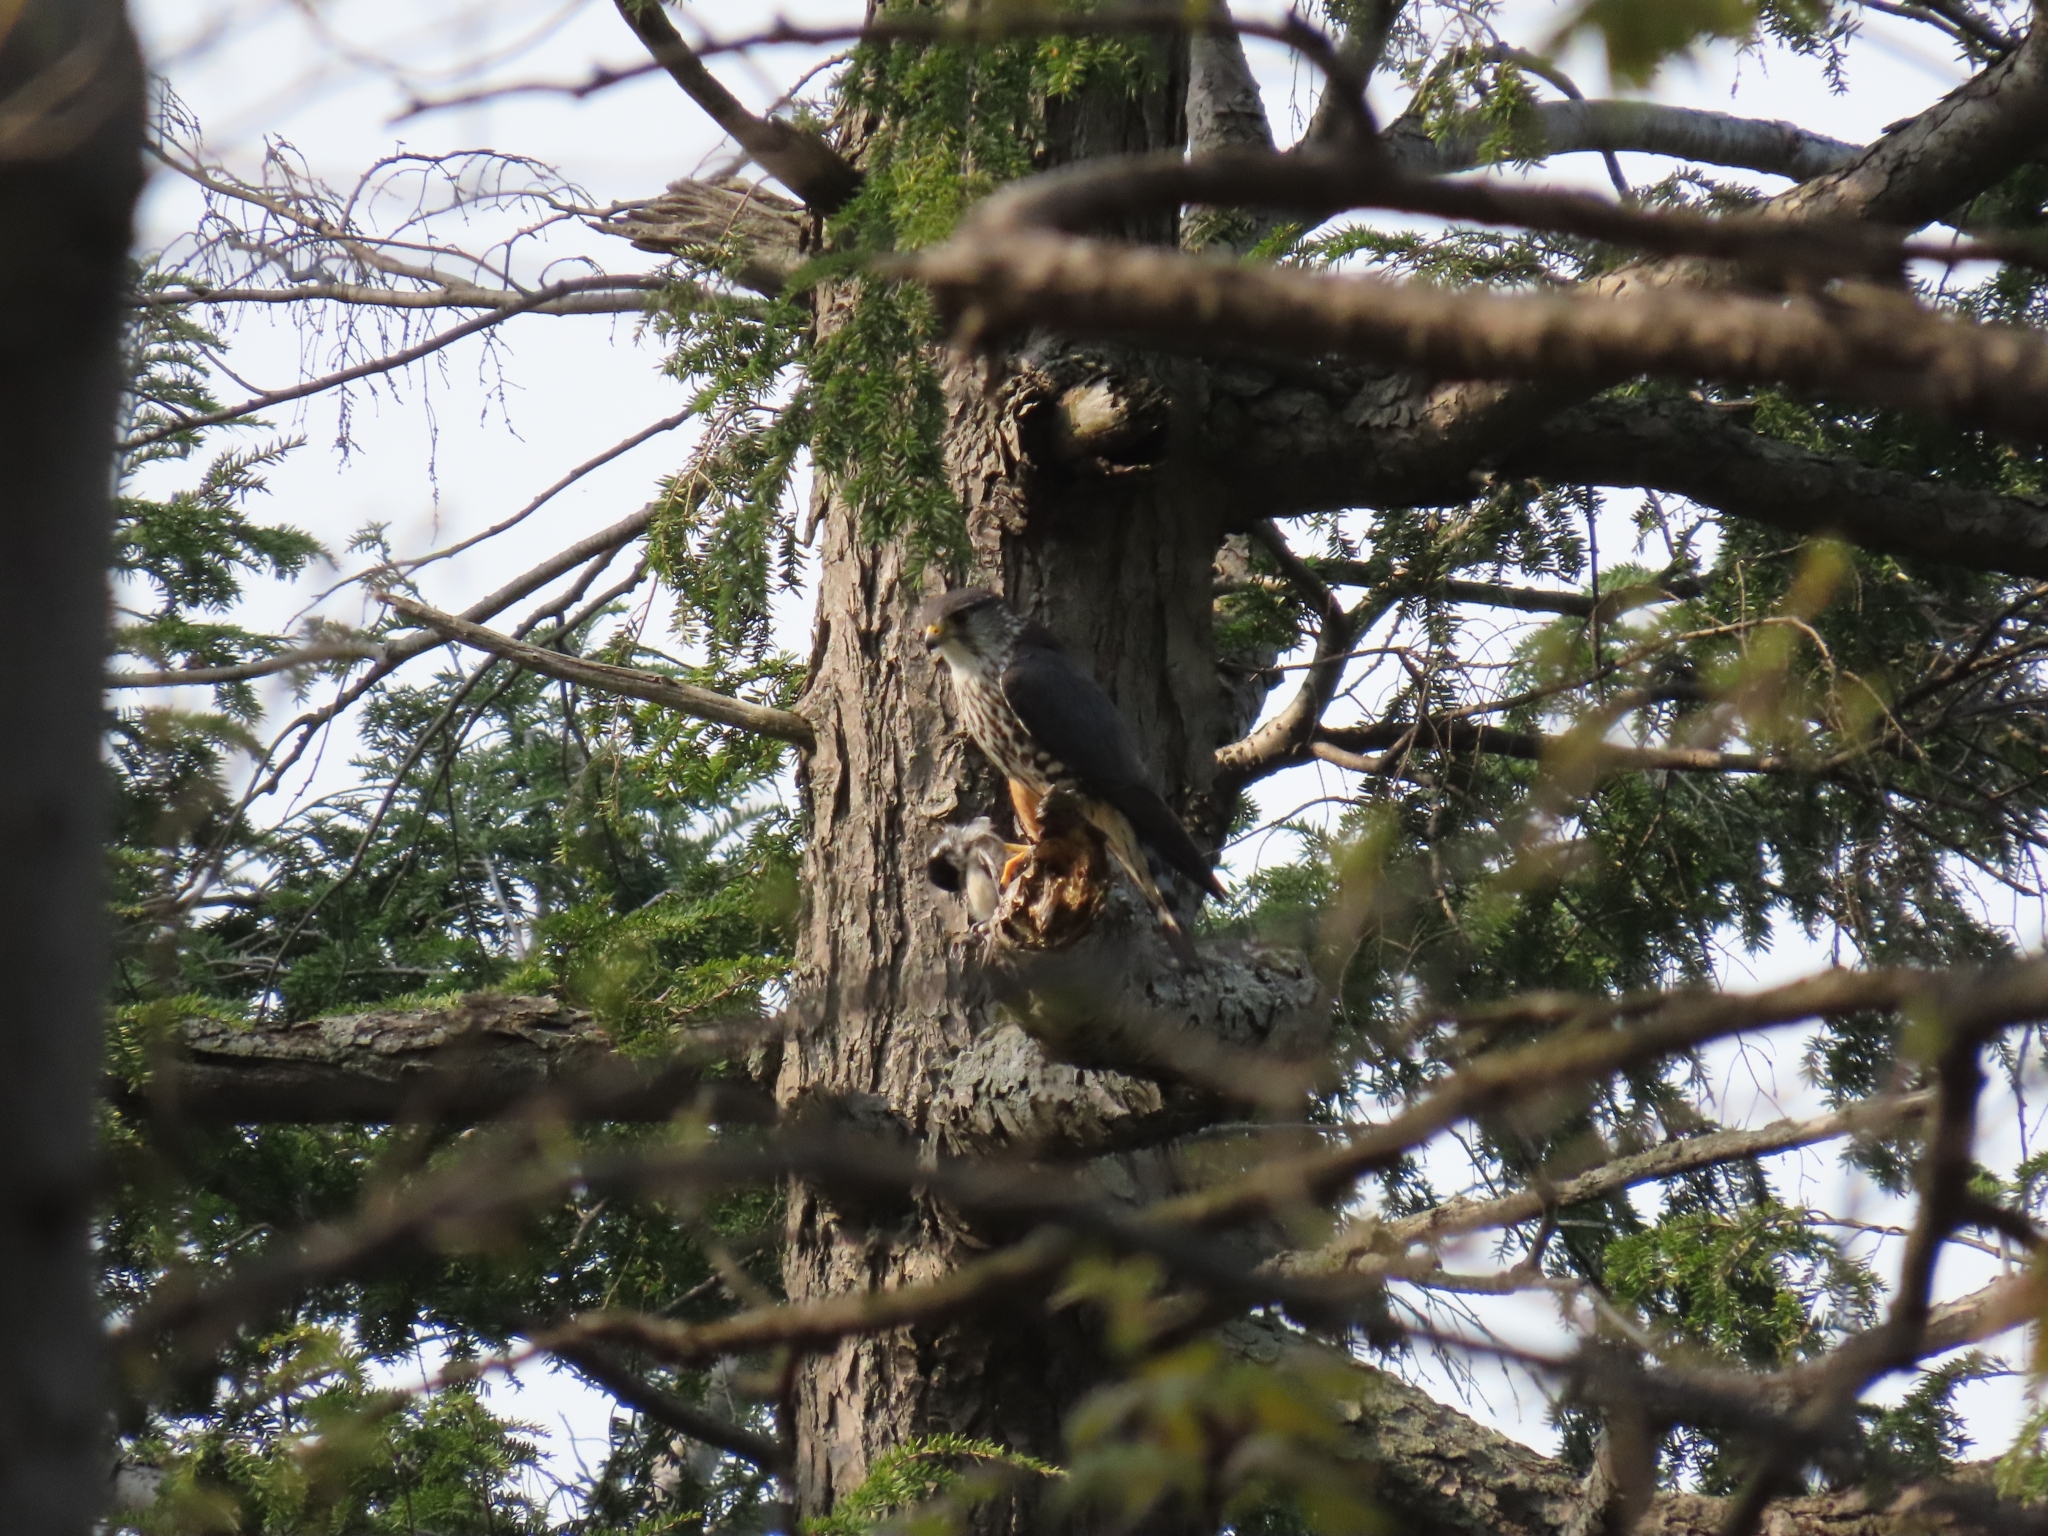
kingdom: Animalia
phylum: Chordata
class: Aves
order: Falconiformes
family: Falconidae
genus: Falco
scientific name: Falco columbarius
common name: Merlin
